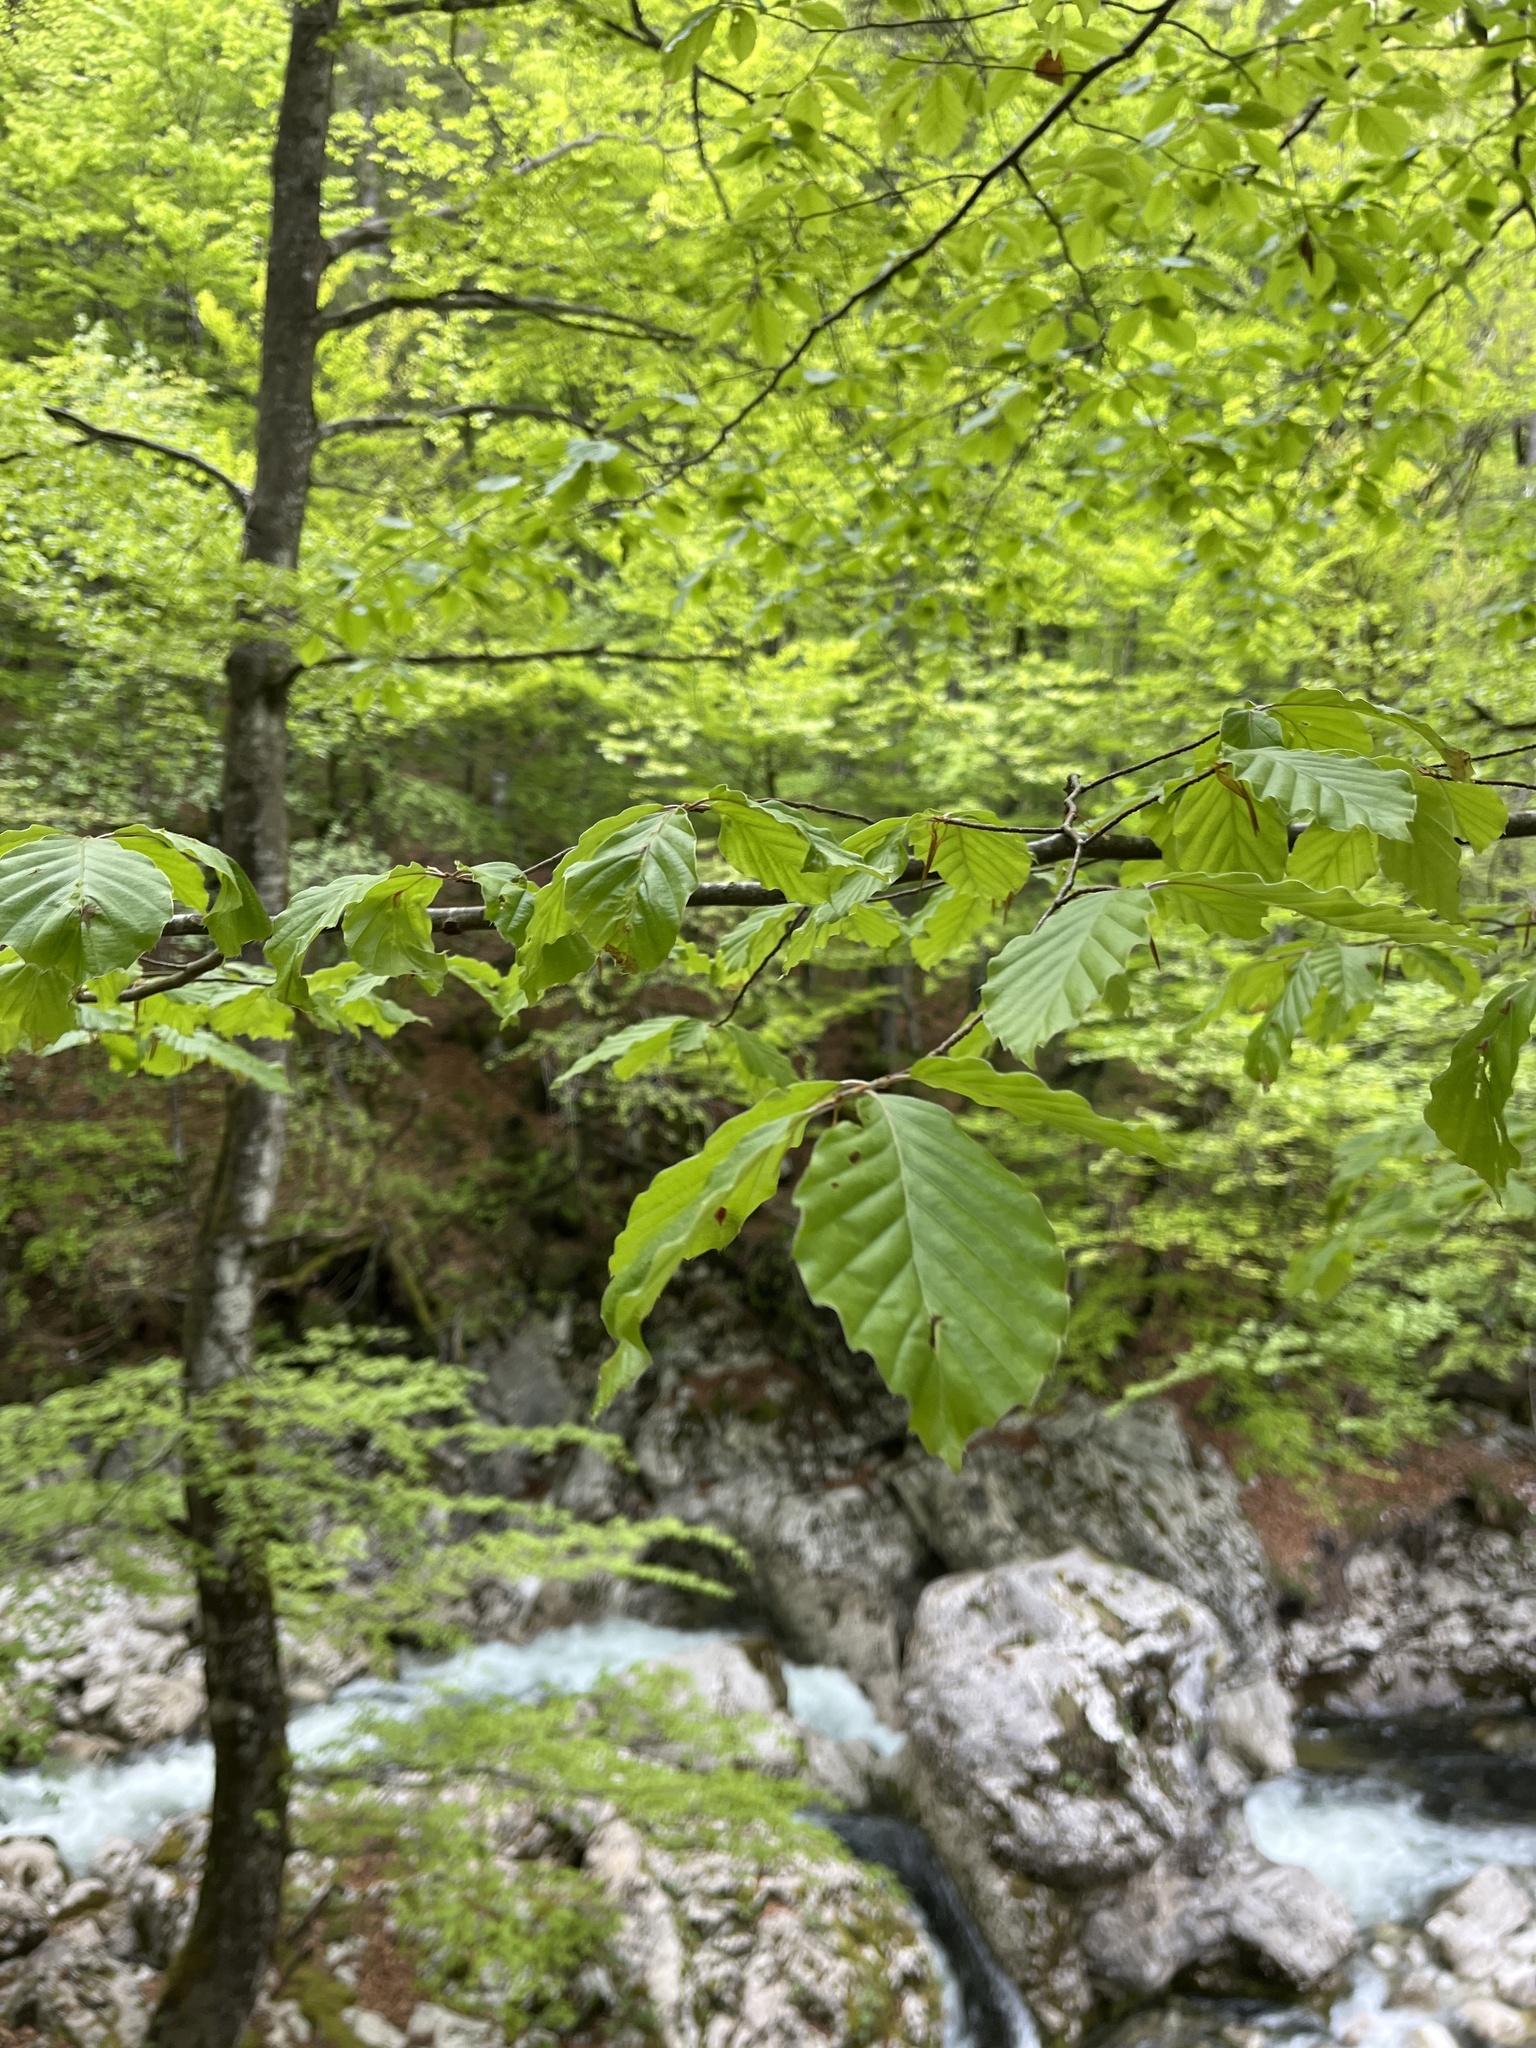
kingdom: Plantae
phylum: Tracheophyta
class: Magnoliopsida
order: Fagales
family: Fagaceae
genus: Fagus
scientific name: Fagus sylvatica
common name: Beech
